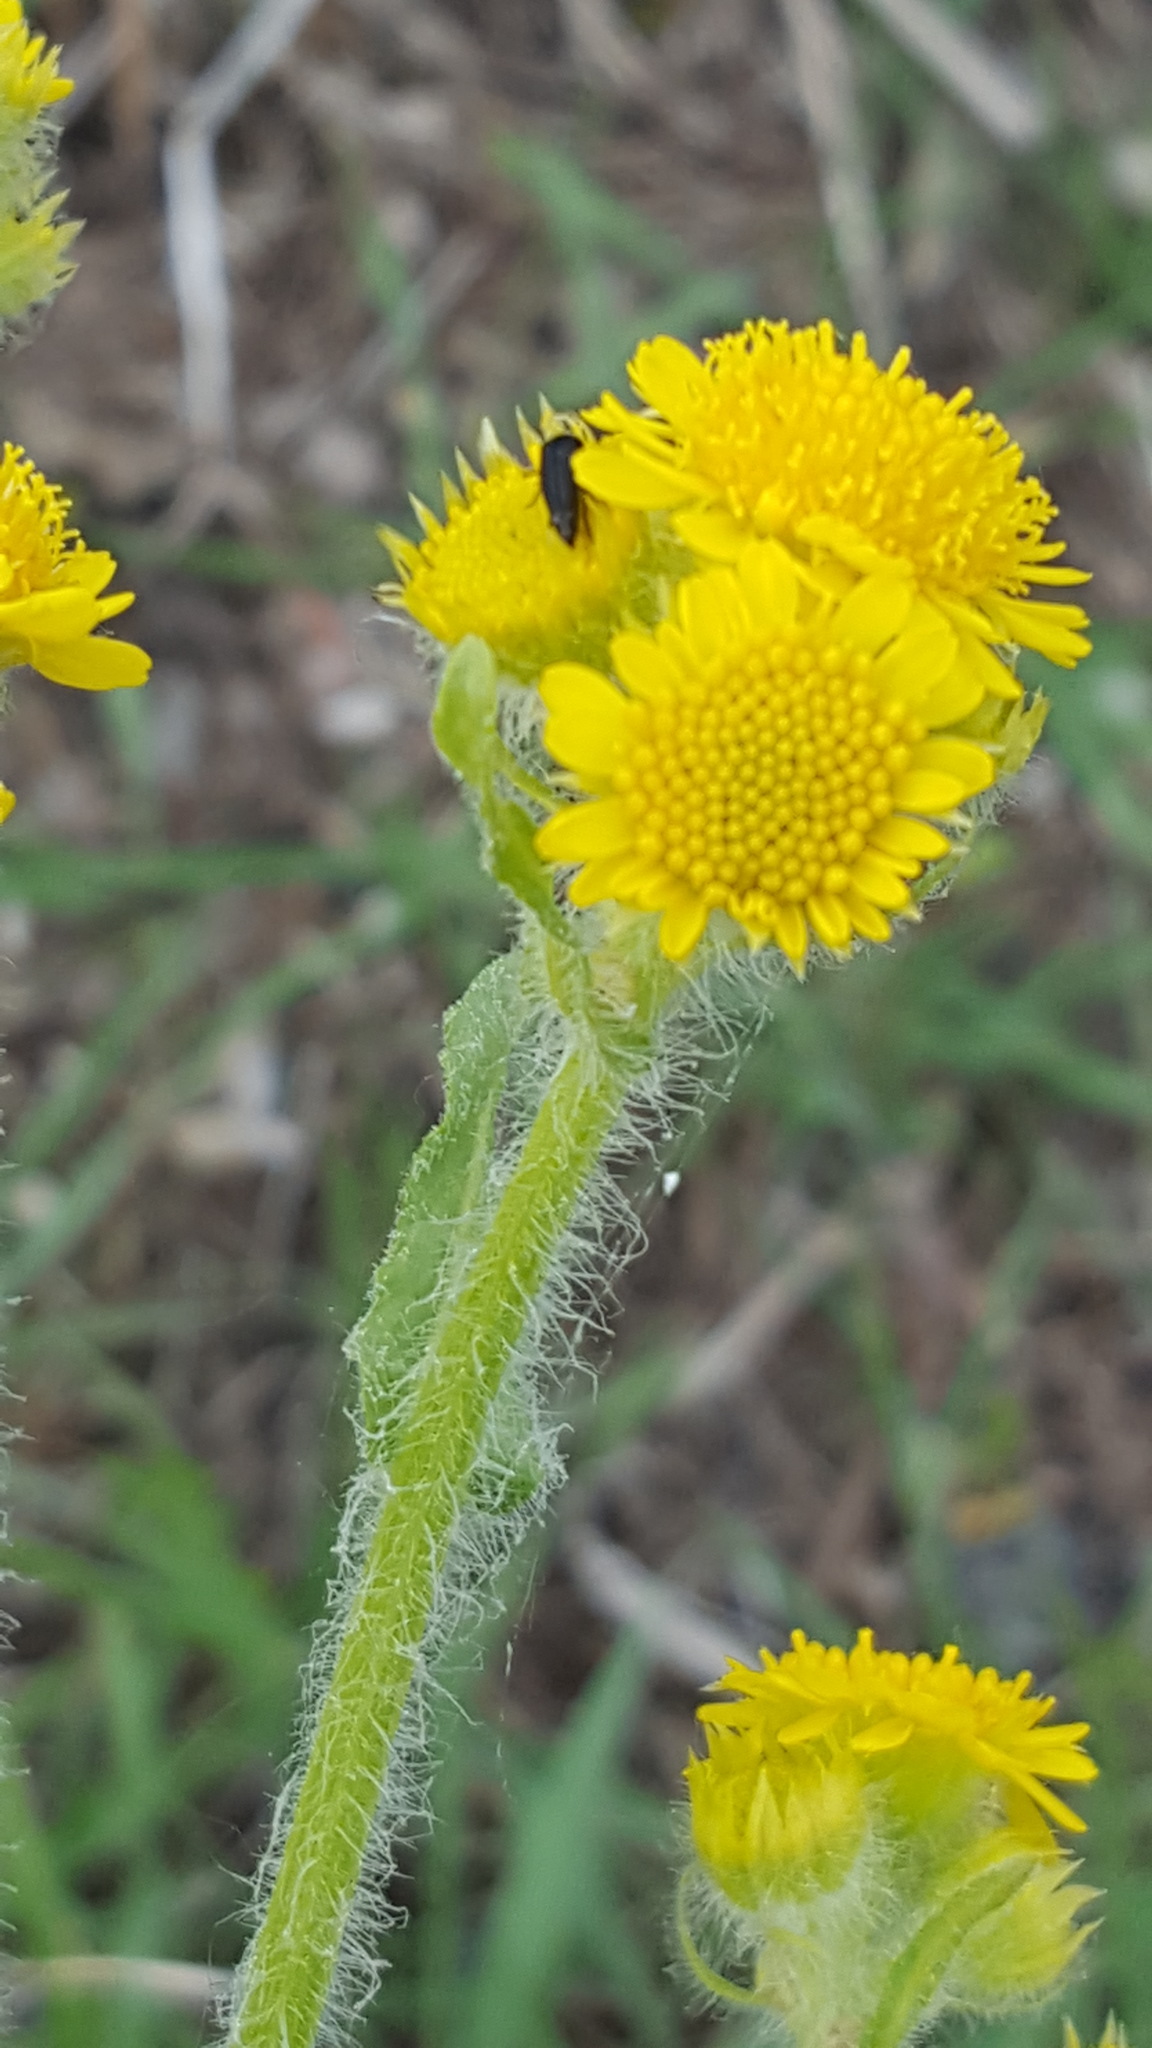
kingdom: Plantae
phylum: Tracheophyta
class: Magnoliopsida
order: Asterales
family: Asteraceae
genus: Tephroseris
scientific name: Tephroseris palustris
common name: Marsh fleawort
